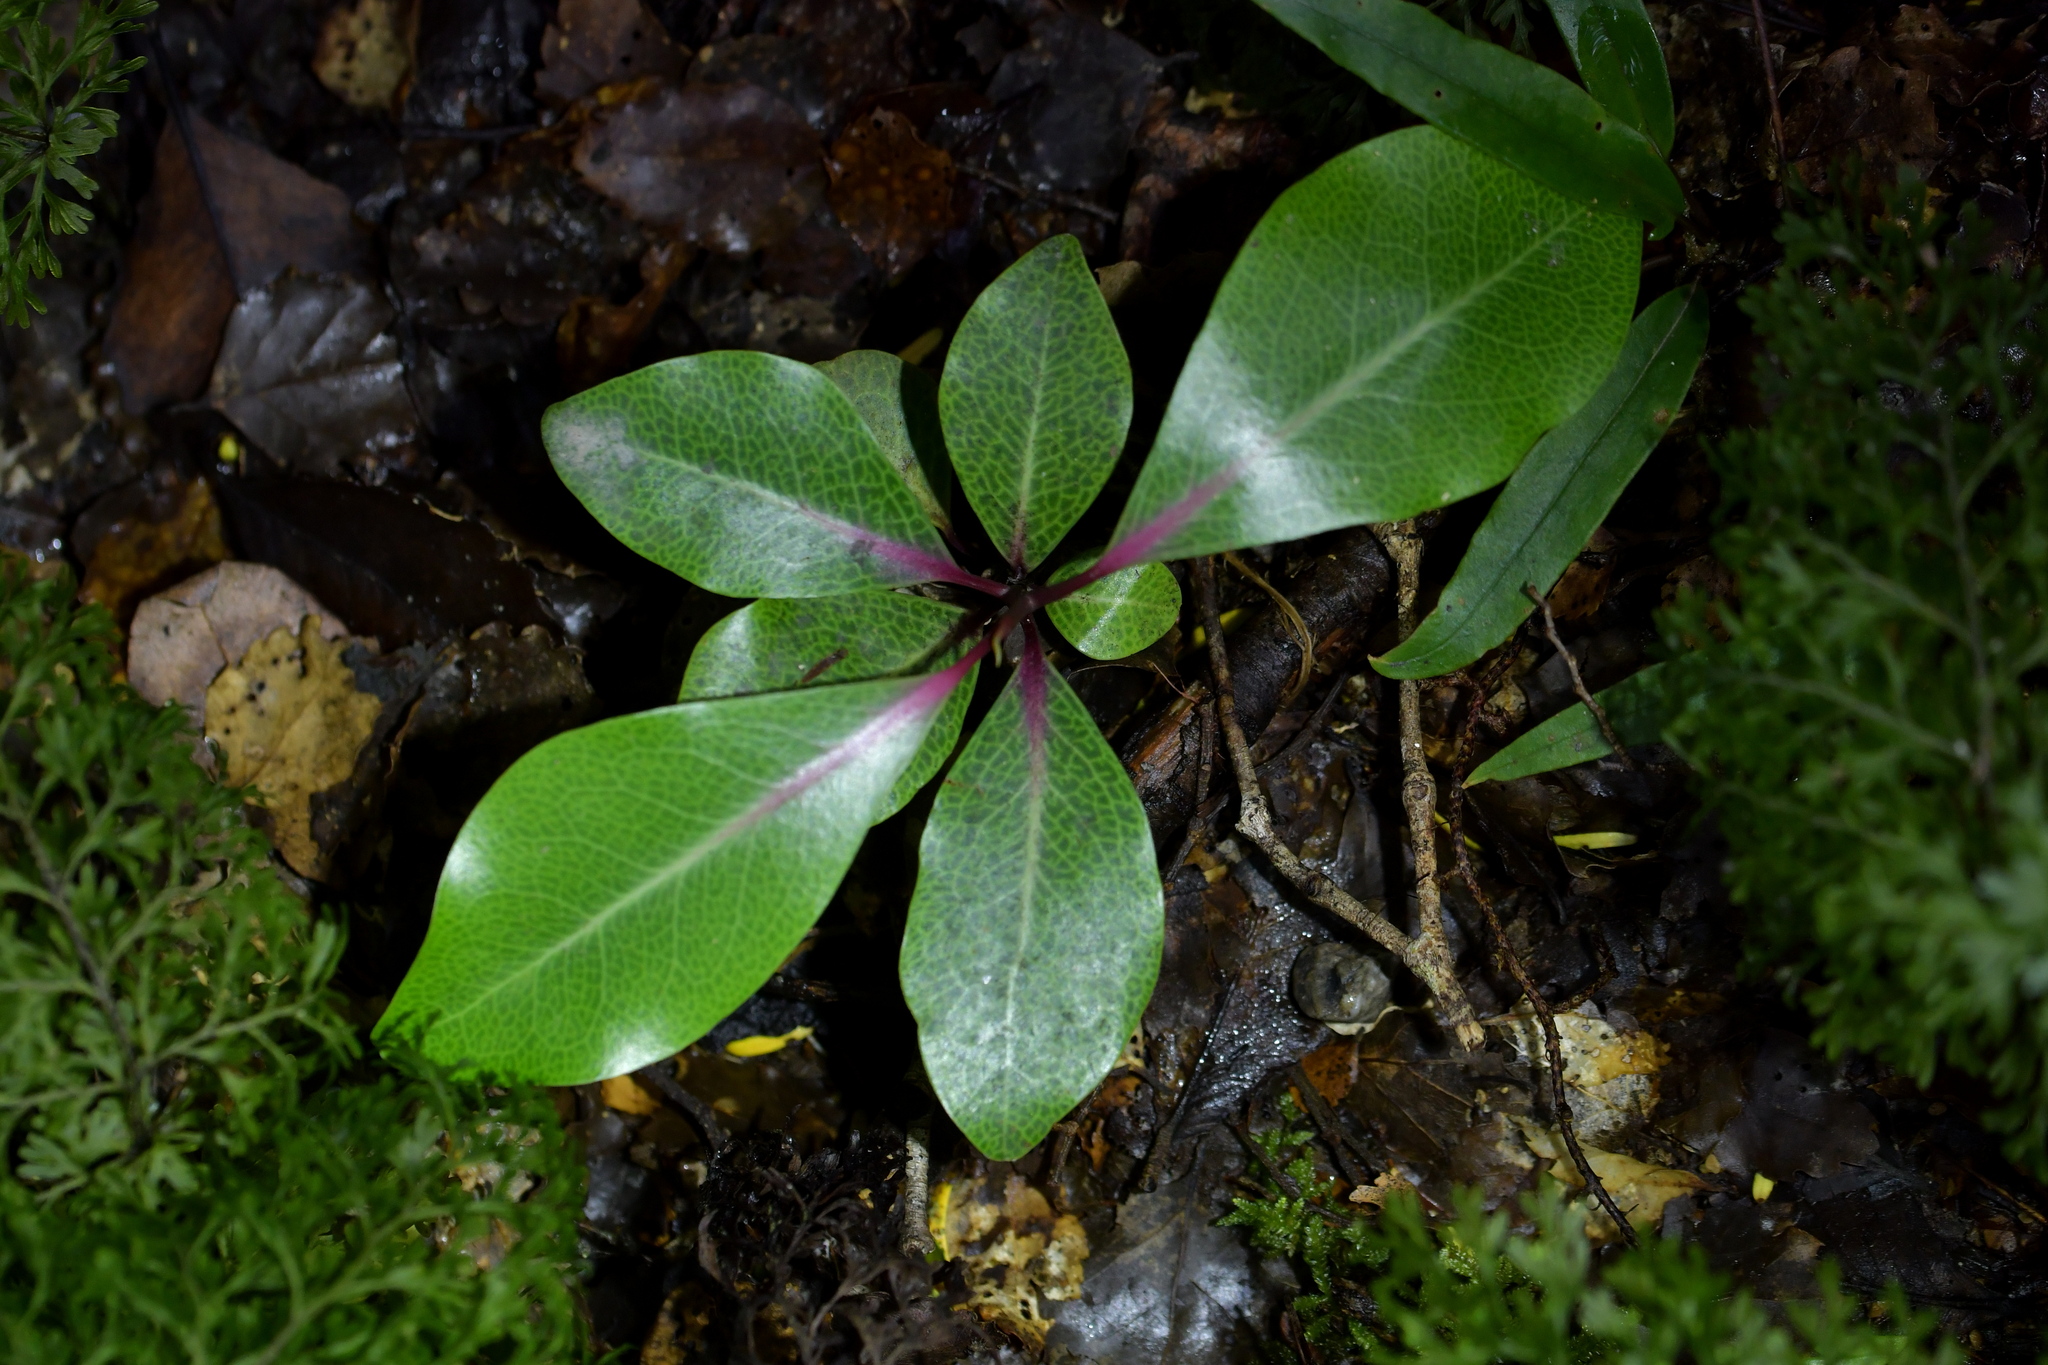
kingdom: Plantae
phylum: Tracheophyta
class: Magnoliopsida
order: Canellales
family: Winteraceae
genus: Pseudowintera
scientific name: Pseudowintera axillaris
